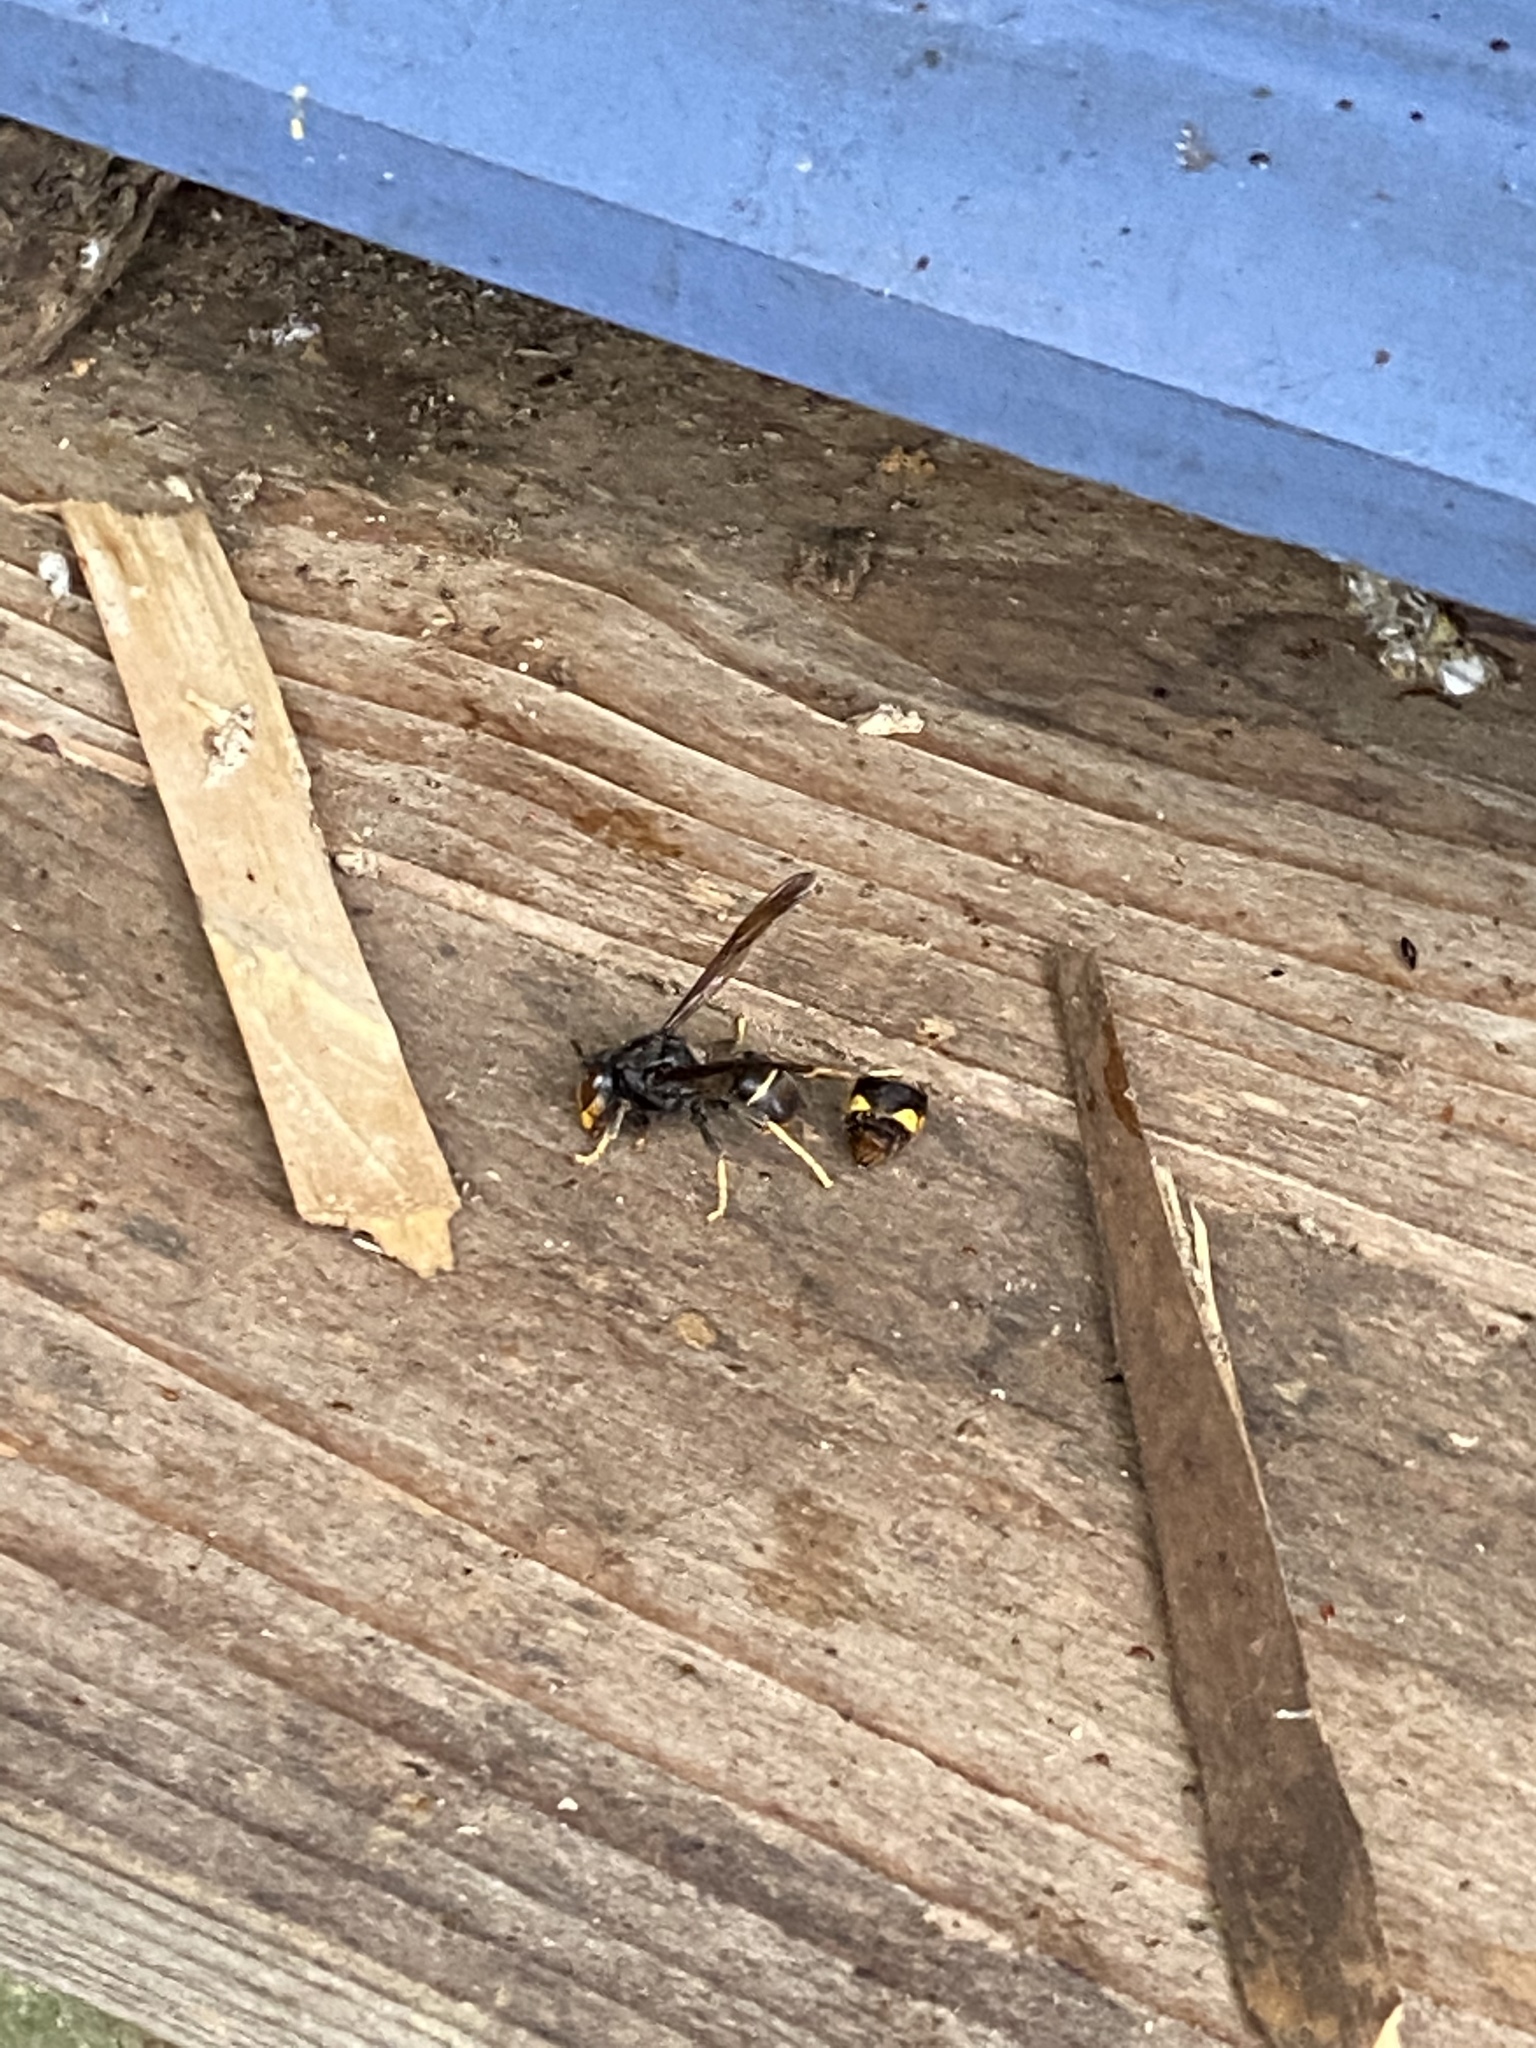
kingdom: Animalia
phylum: Arthropoda
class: Insecta
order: Hymenoptera
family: Vespidae
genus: Vespa
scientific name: Vespa velutina
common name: Asian hornet
